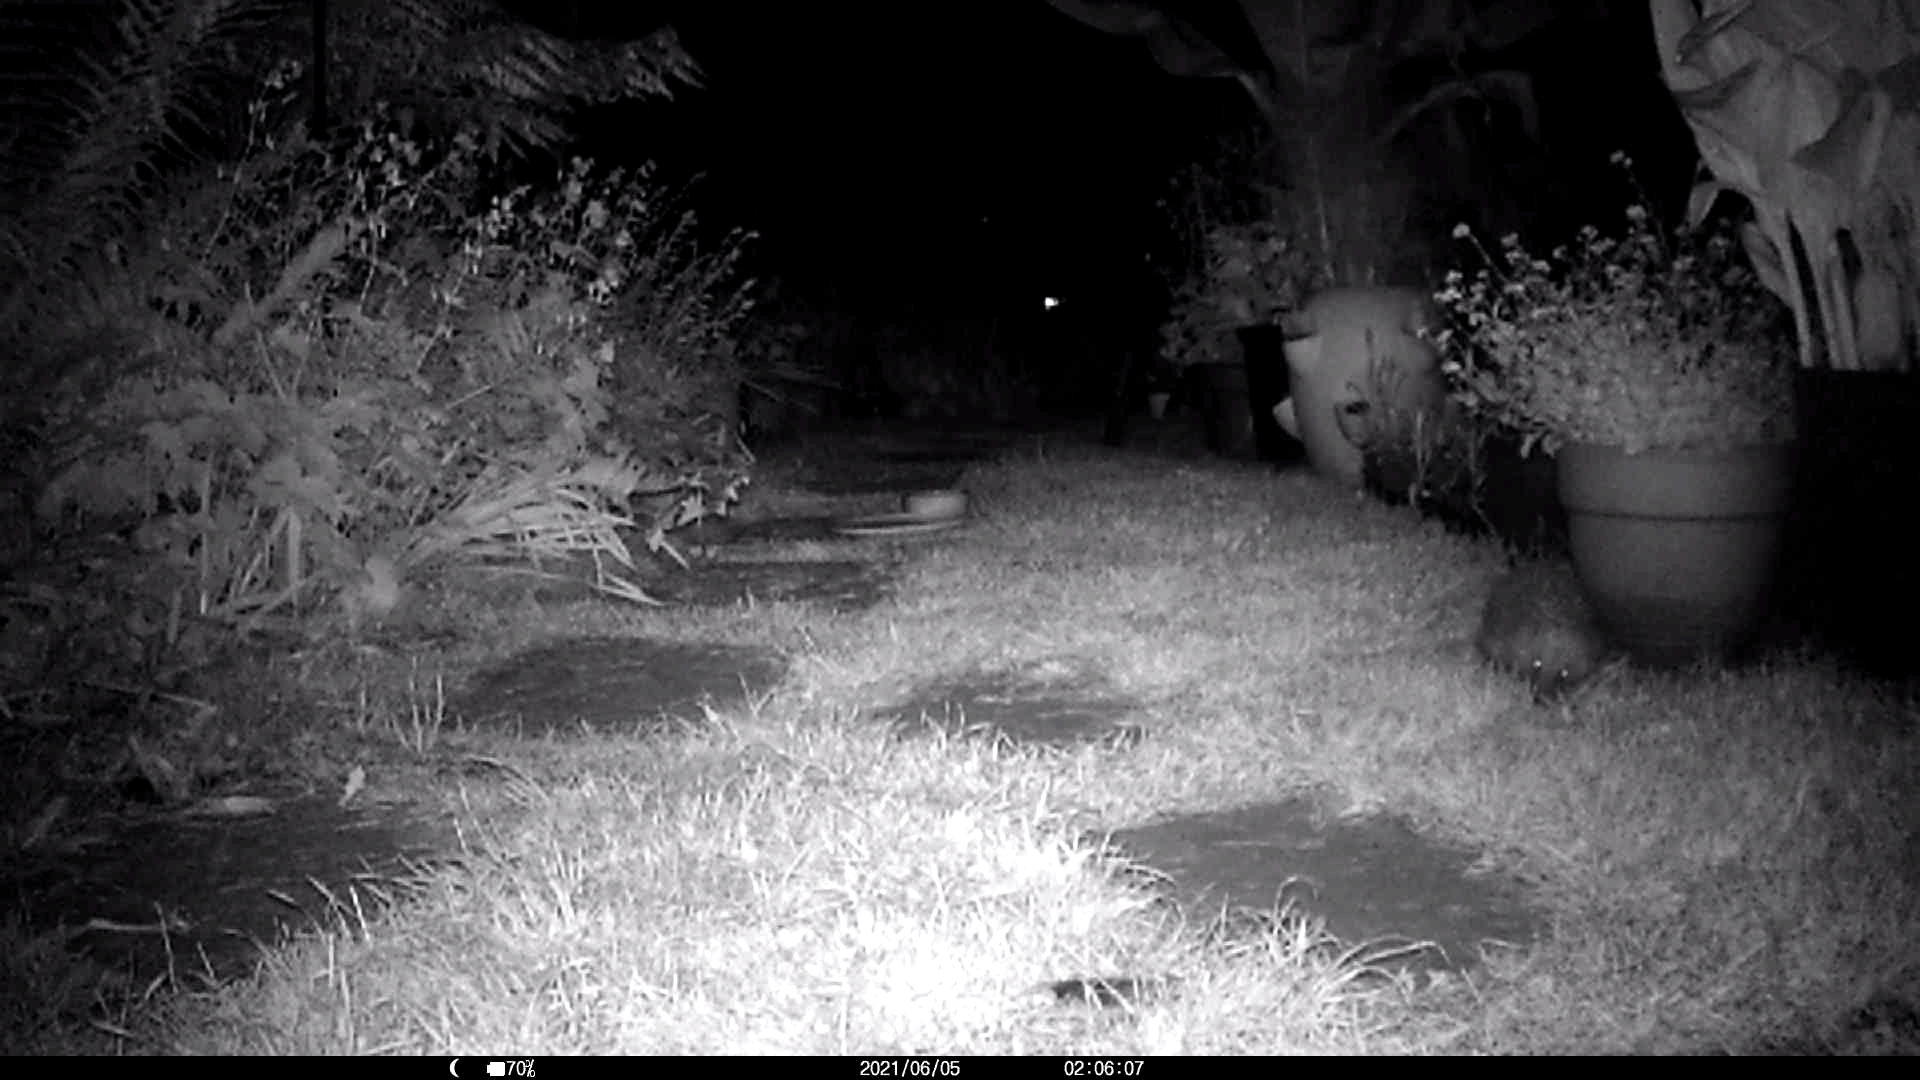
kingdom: Animalia
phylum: Chordata
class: Mammalia
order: Erinaceomorpha
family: Erinaceidae
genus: Erinaceus
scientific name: Erinaceus europaeus
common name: West european hedgehog
